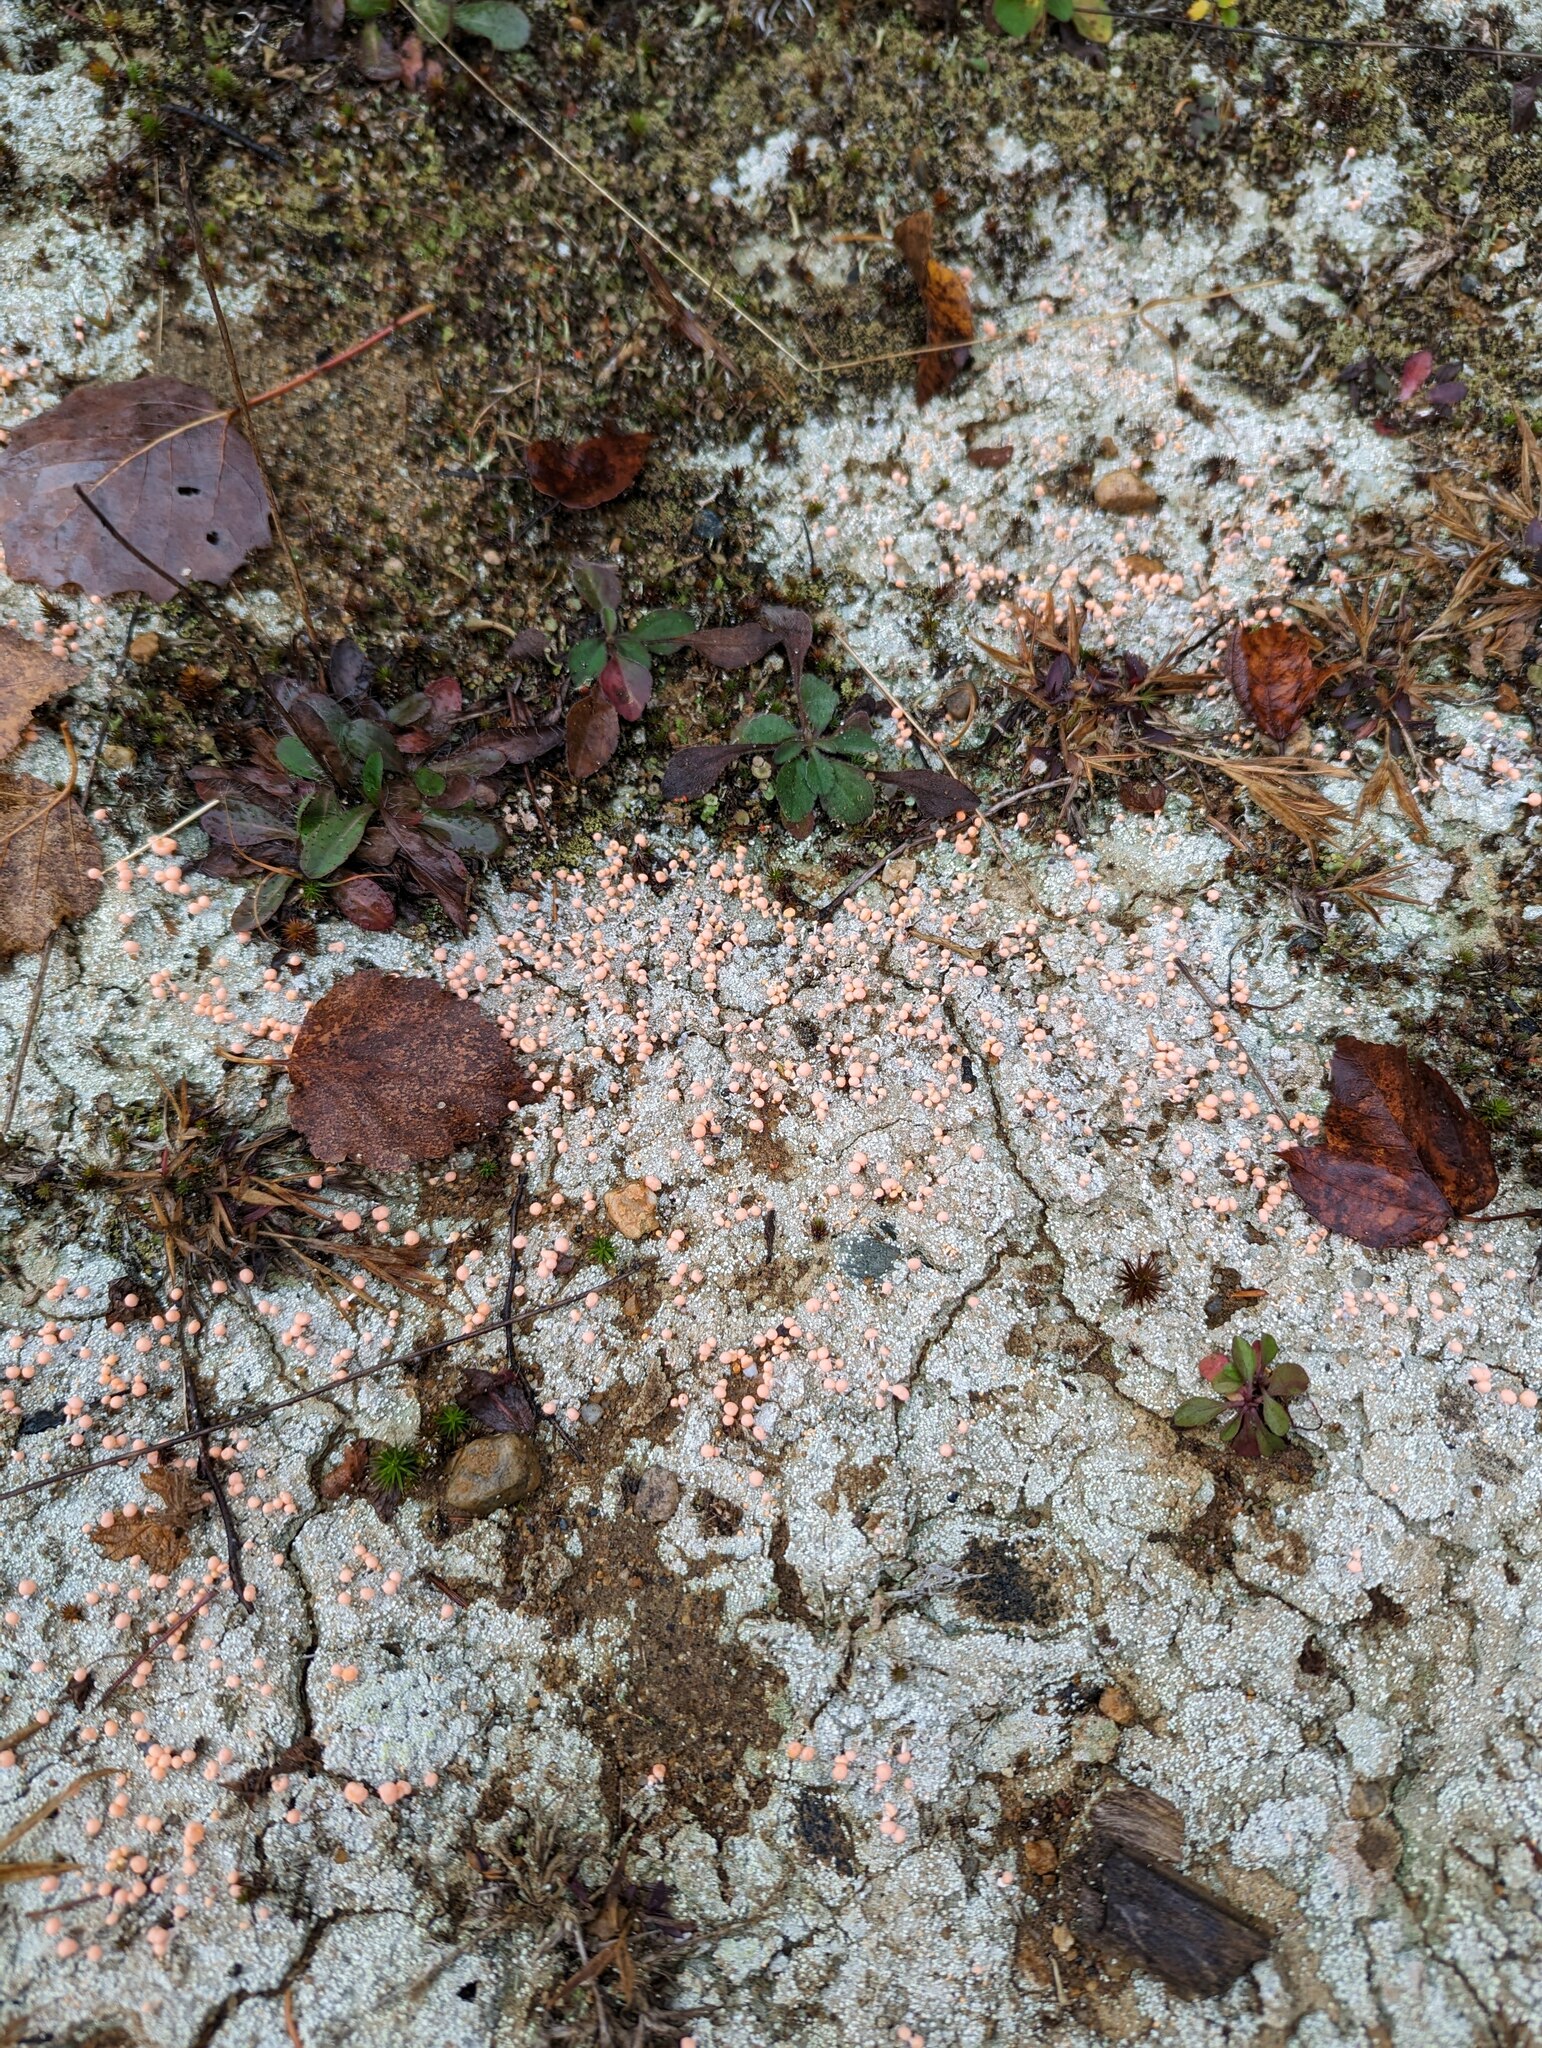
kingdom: Fungi
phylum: Ascomycota
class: Lecanoromycetes
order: Pertusariales
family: Icmadophilaceae
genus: Dibaeis
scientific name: Dibaeis baeomyces
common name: Pink earth lichen
